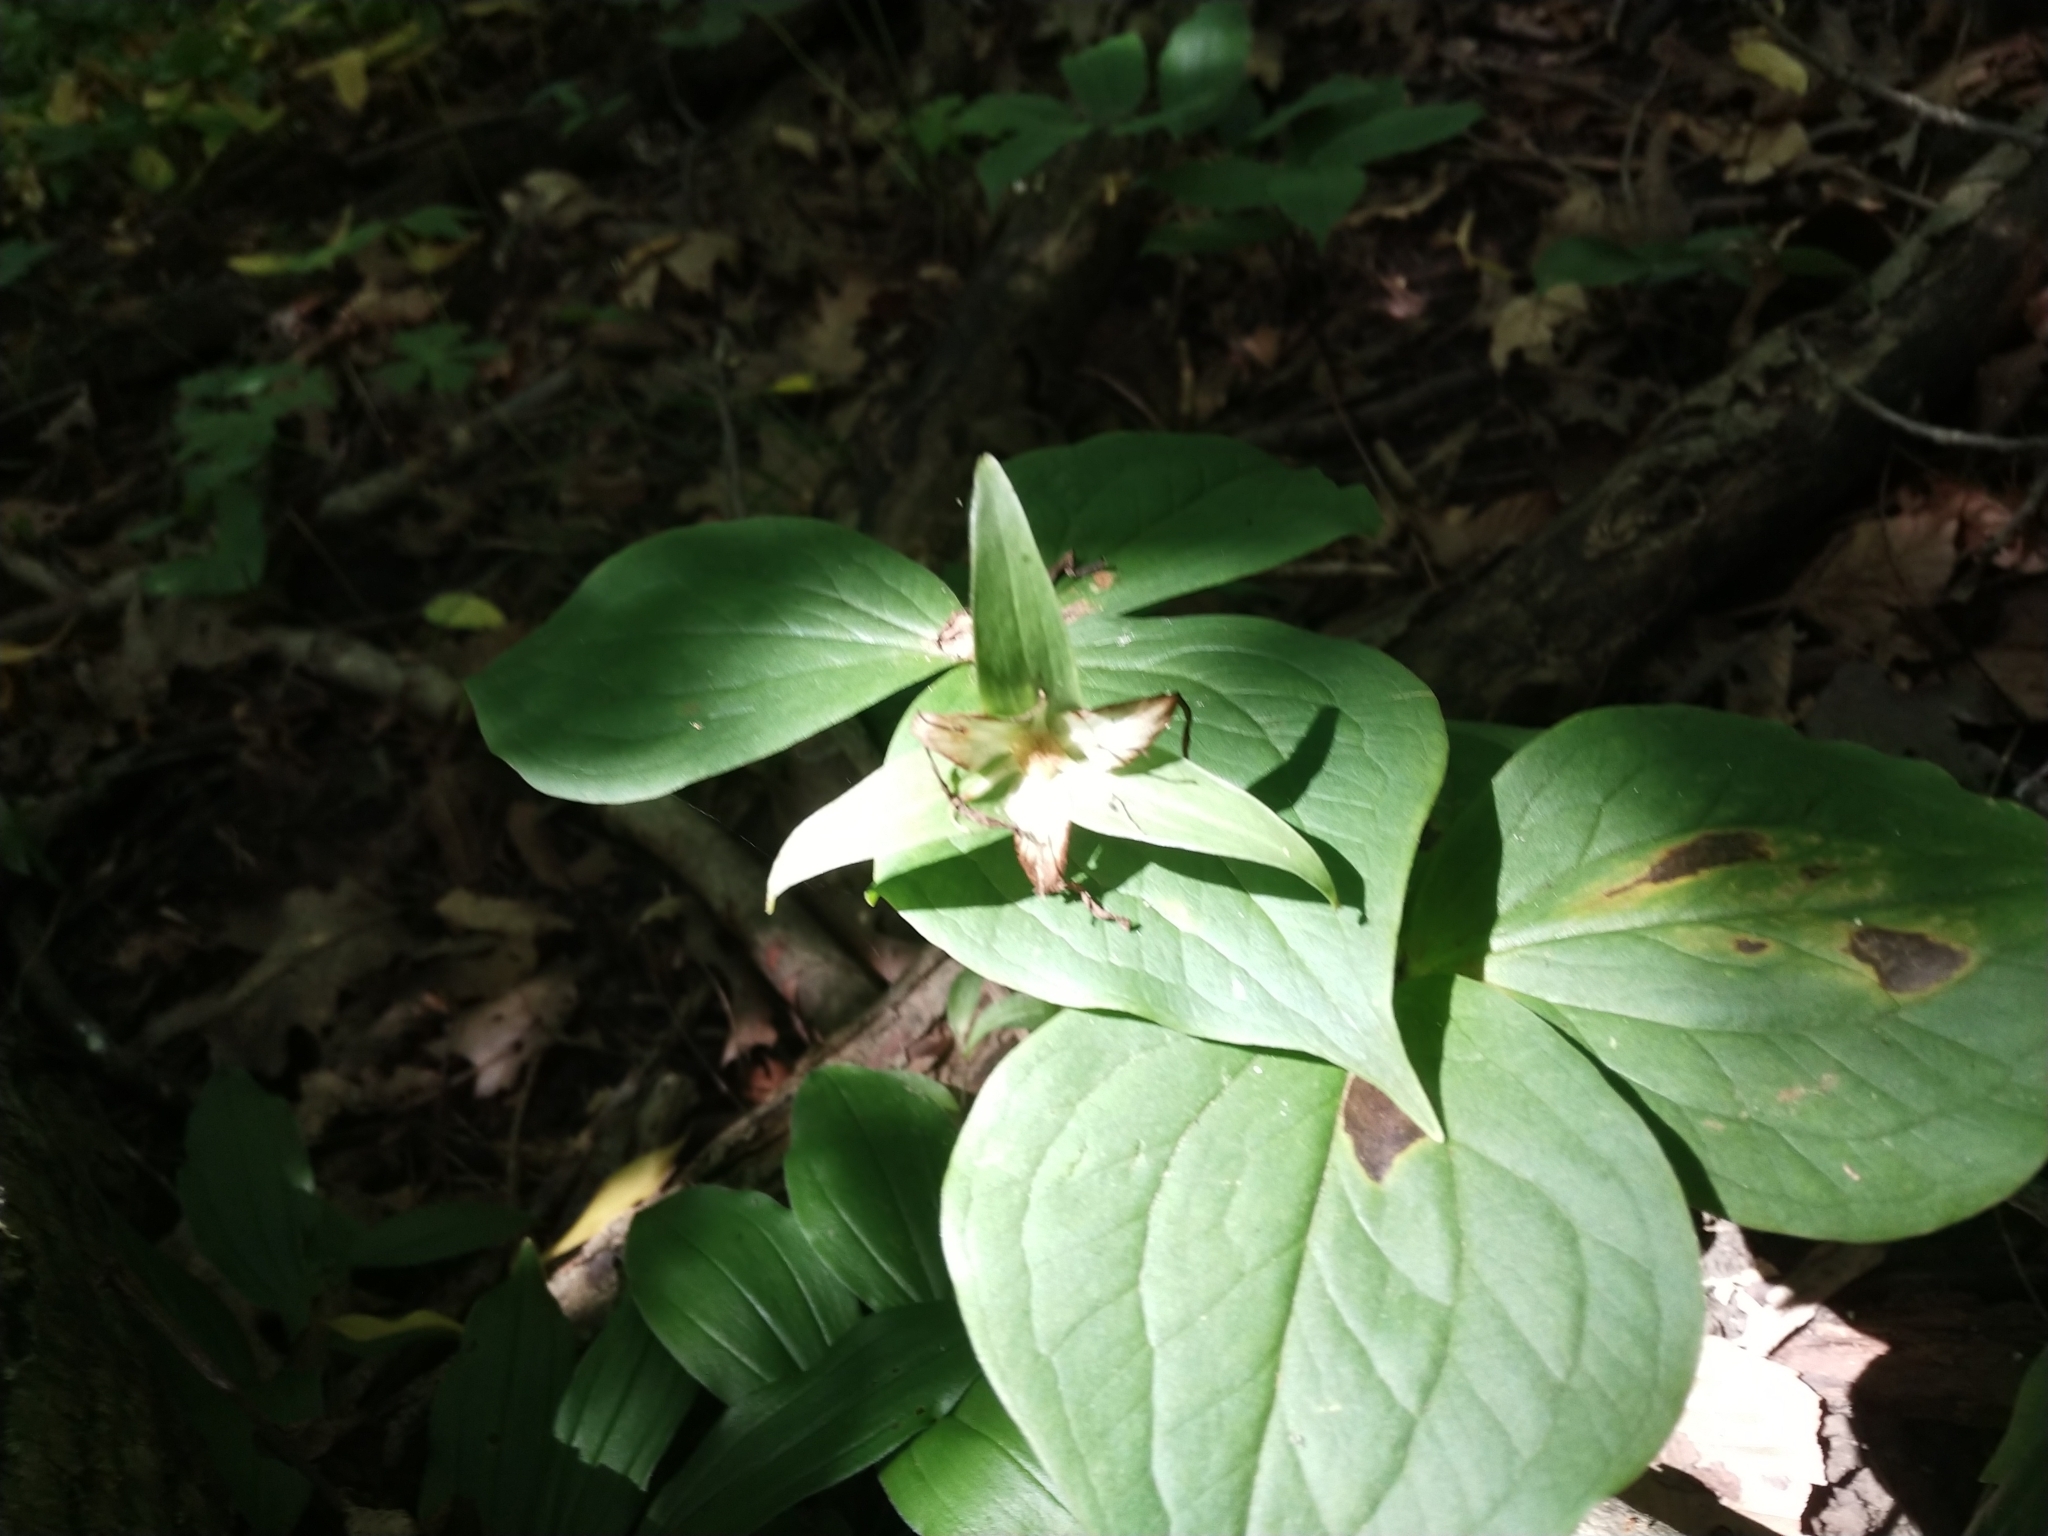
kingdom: Plantae
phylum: Tracheophyta
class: Liliopsida
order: Liliales
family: Melanthiaceae
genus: Trillium
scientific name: Trillium grandiflorum
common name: Great white trillium
